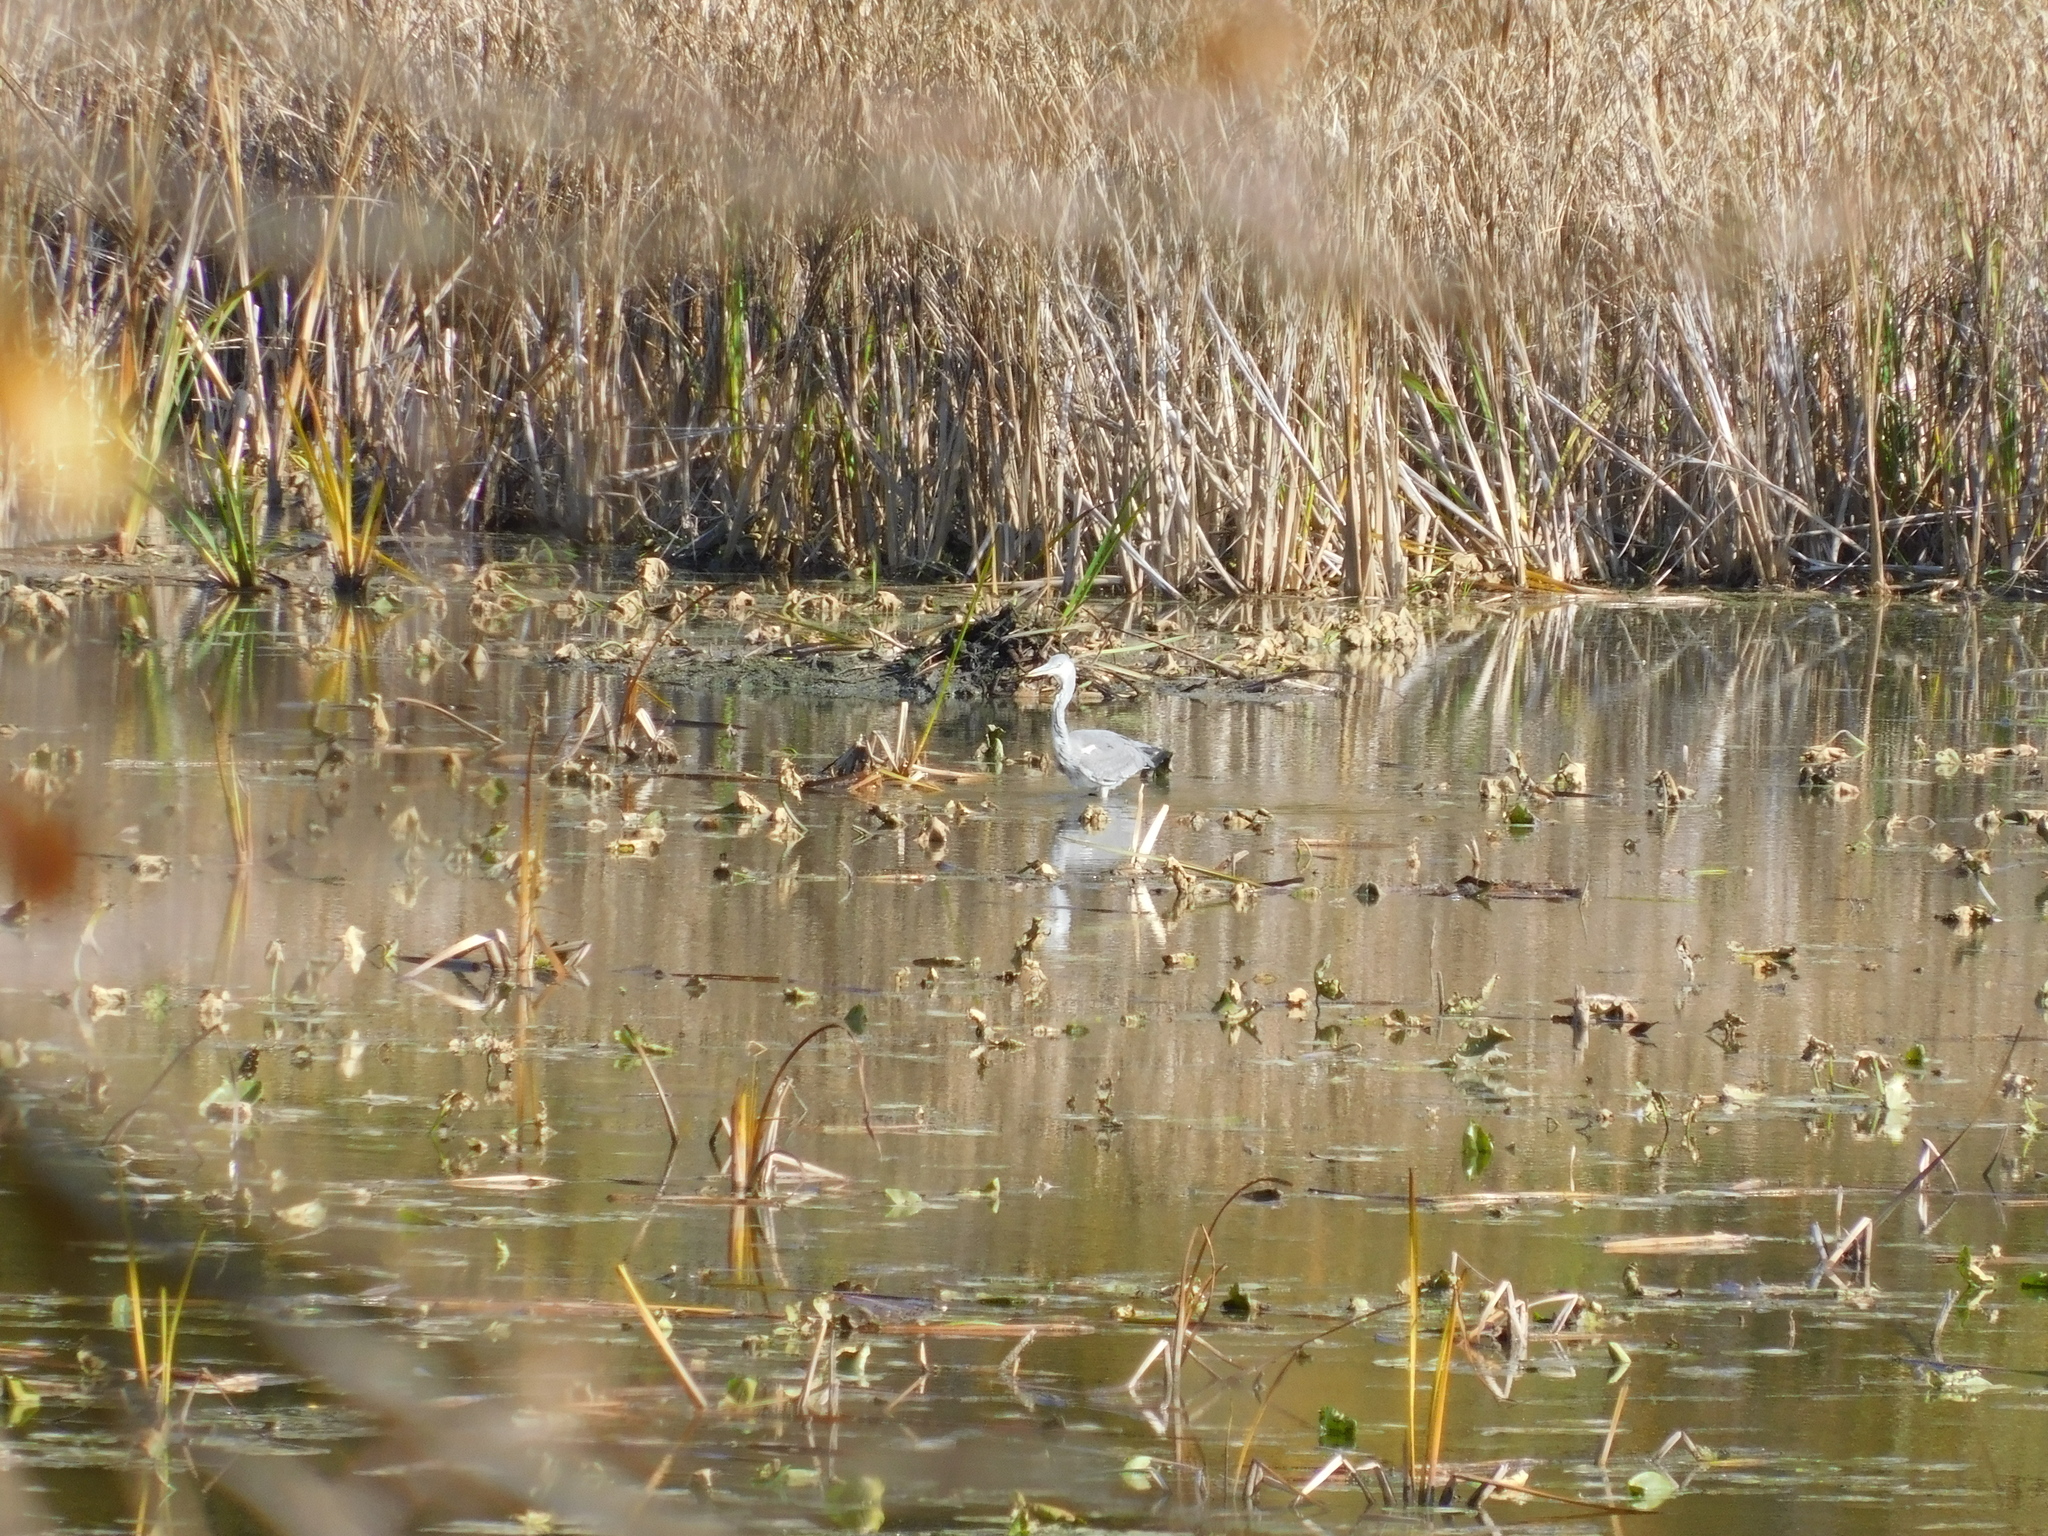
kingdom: Animalia
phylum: Chordata
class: Aves
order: Pelecaniformes
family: Ardeidae
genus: Ardea
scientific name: Ardea cinerea
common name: Grey heron
